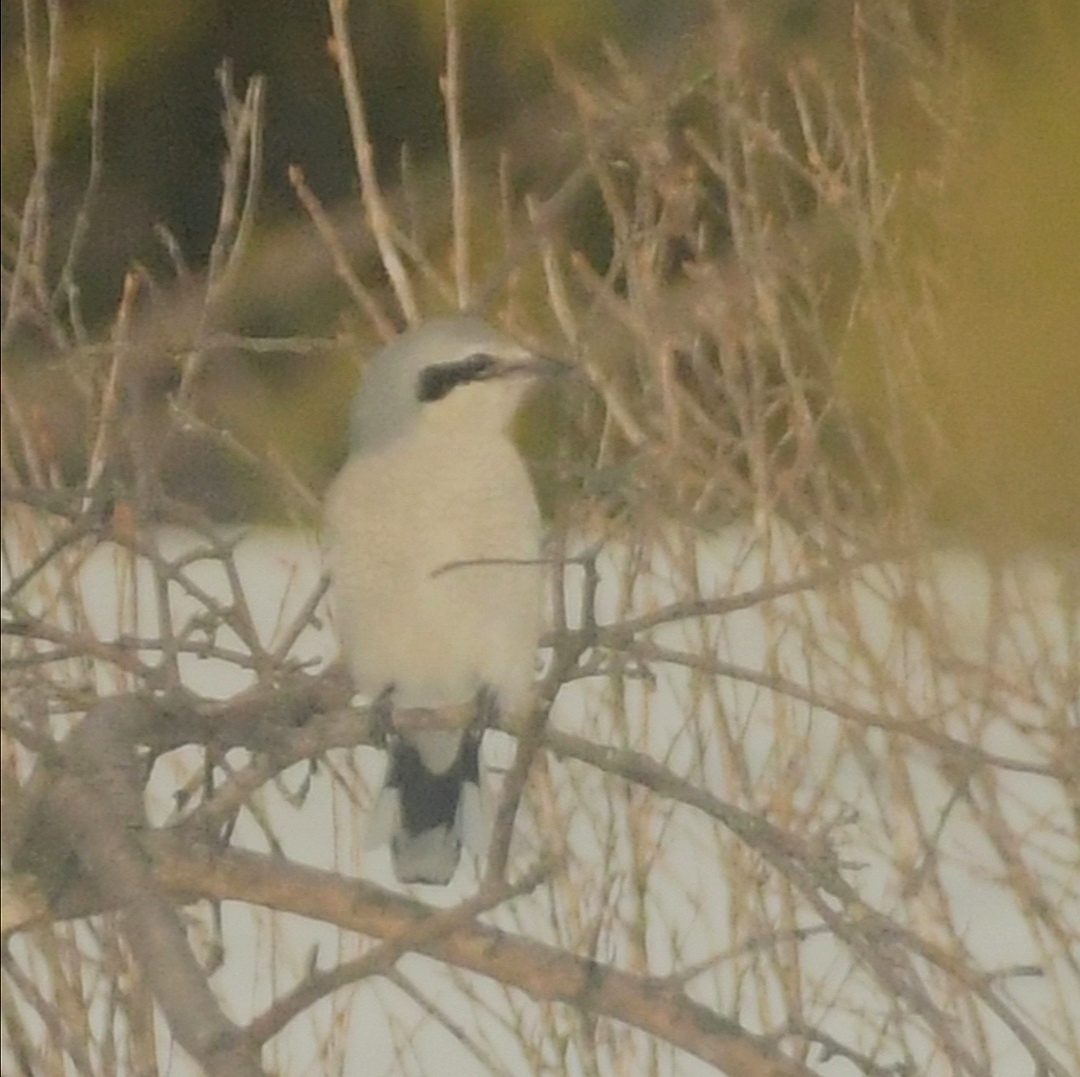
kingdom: Animalia
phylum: Chordata
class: Aves
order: Passeriformes
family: Laniidae
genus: Lanius
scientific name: Lanius borealis
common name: Northern shrike
